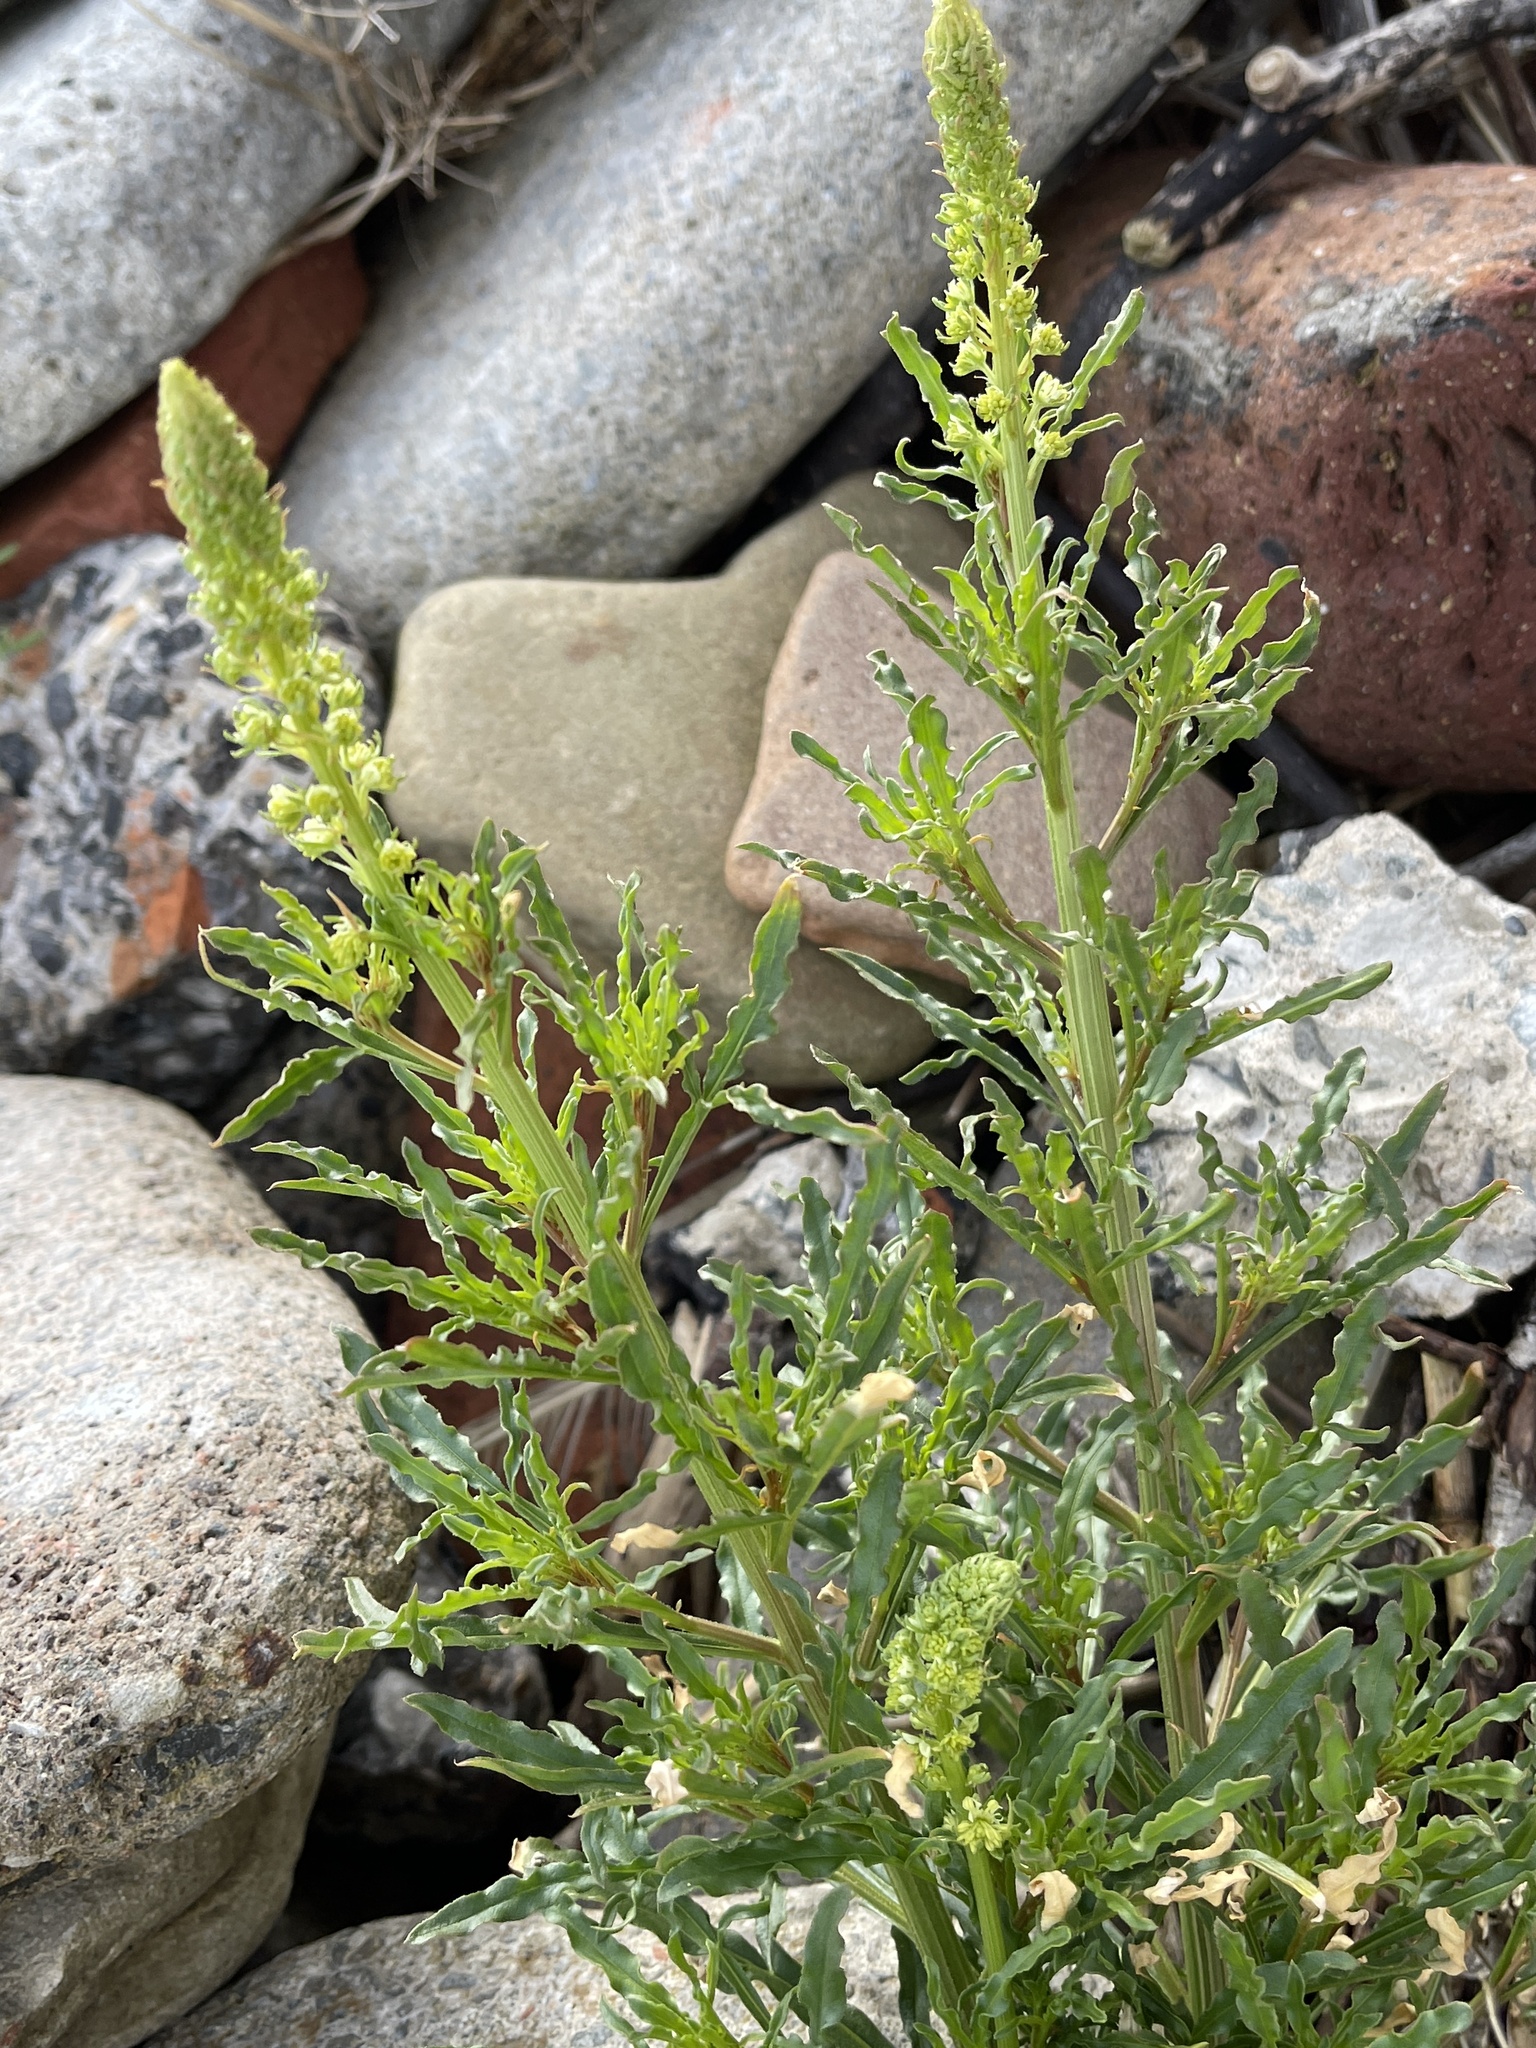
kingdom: Plantae
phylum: Tracheophyta
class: Magnoliopsida
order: Brassicales
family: Resedaceae
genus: Reseda
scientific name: Reseda lutea
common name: Wild mignonette
